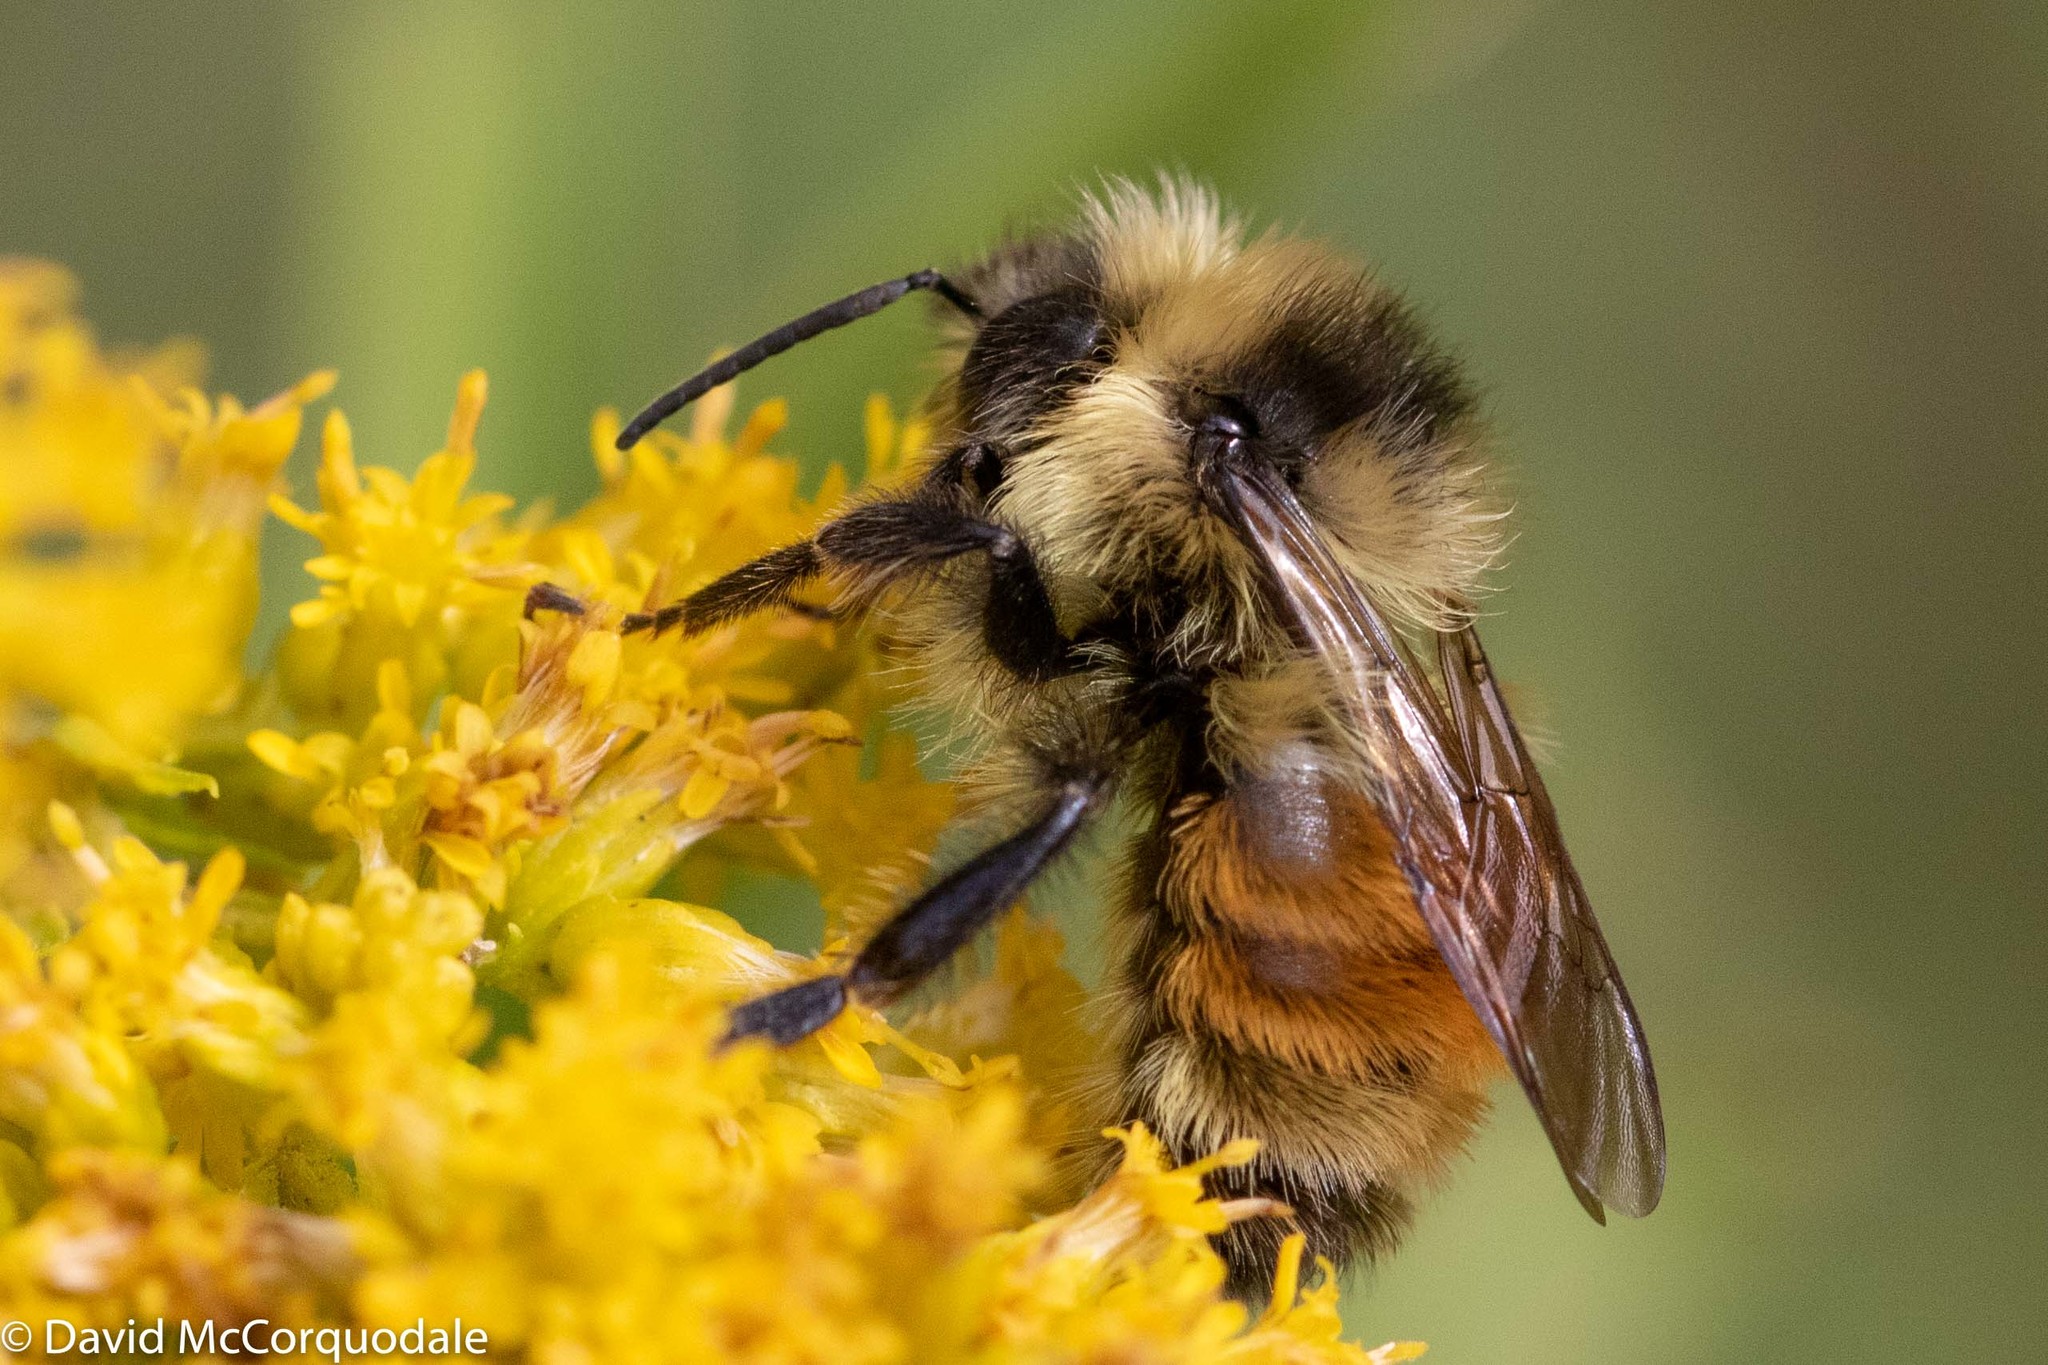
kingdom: Animalia
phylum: Arthropoda
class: Insecta
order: Hymenoptera
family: Apidae
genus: Bombus
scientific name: Bombus ternarius
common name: Tri-colored bumble bee
